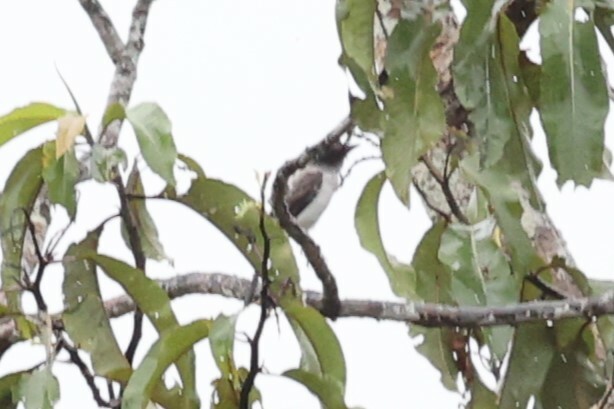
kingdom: Animalia
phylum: Chordata
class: Aves
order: Passeriformes
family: Tyrannidae
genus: Sirystes
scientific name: Sirystes albocinereus
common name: White-rumped sirystes
